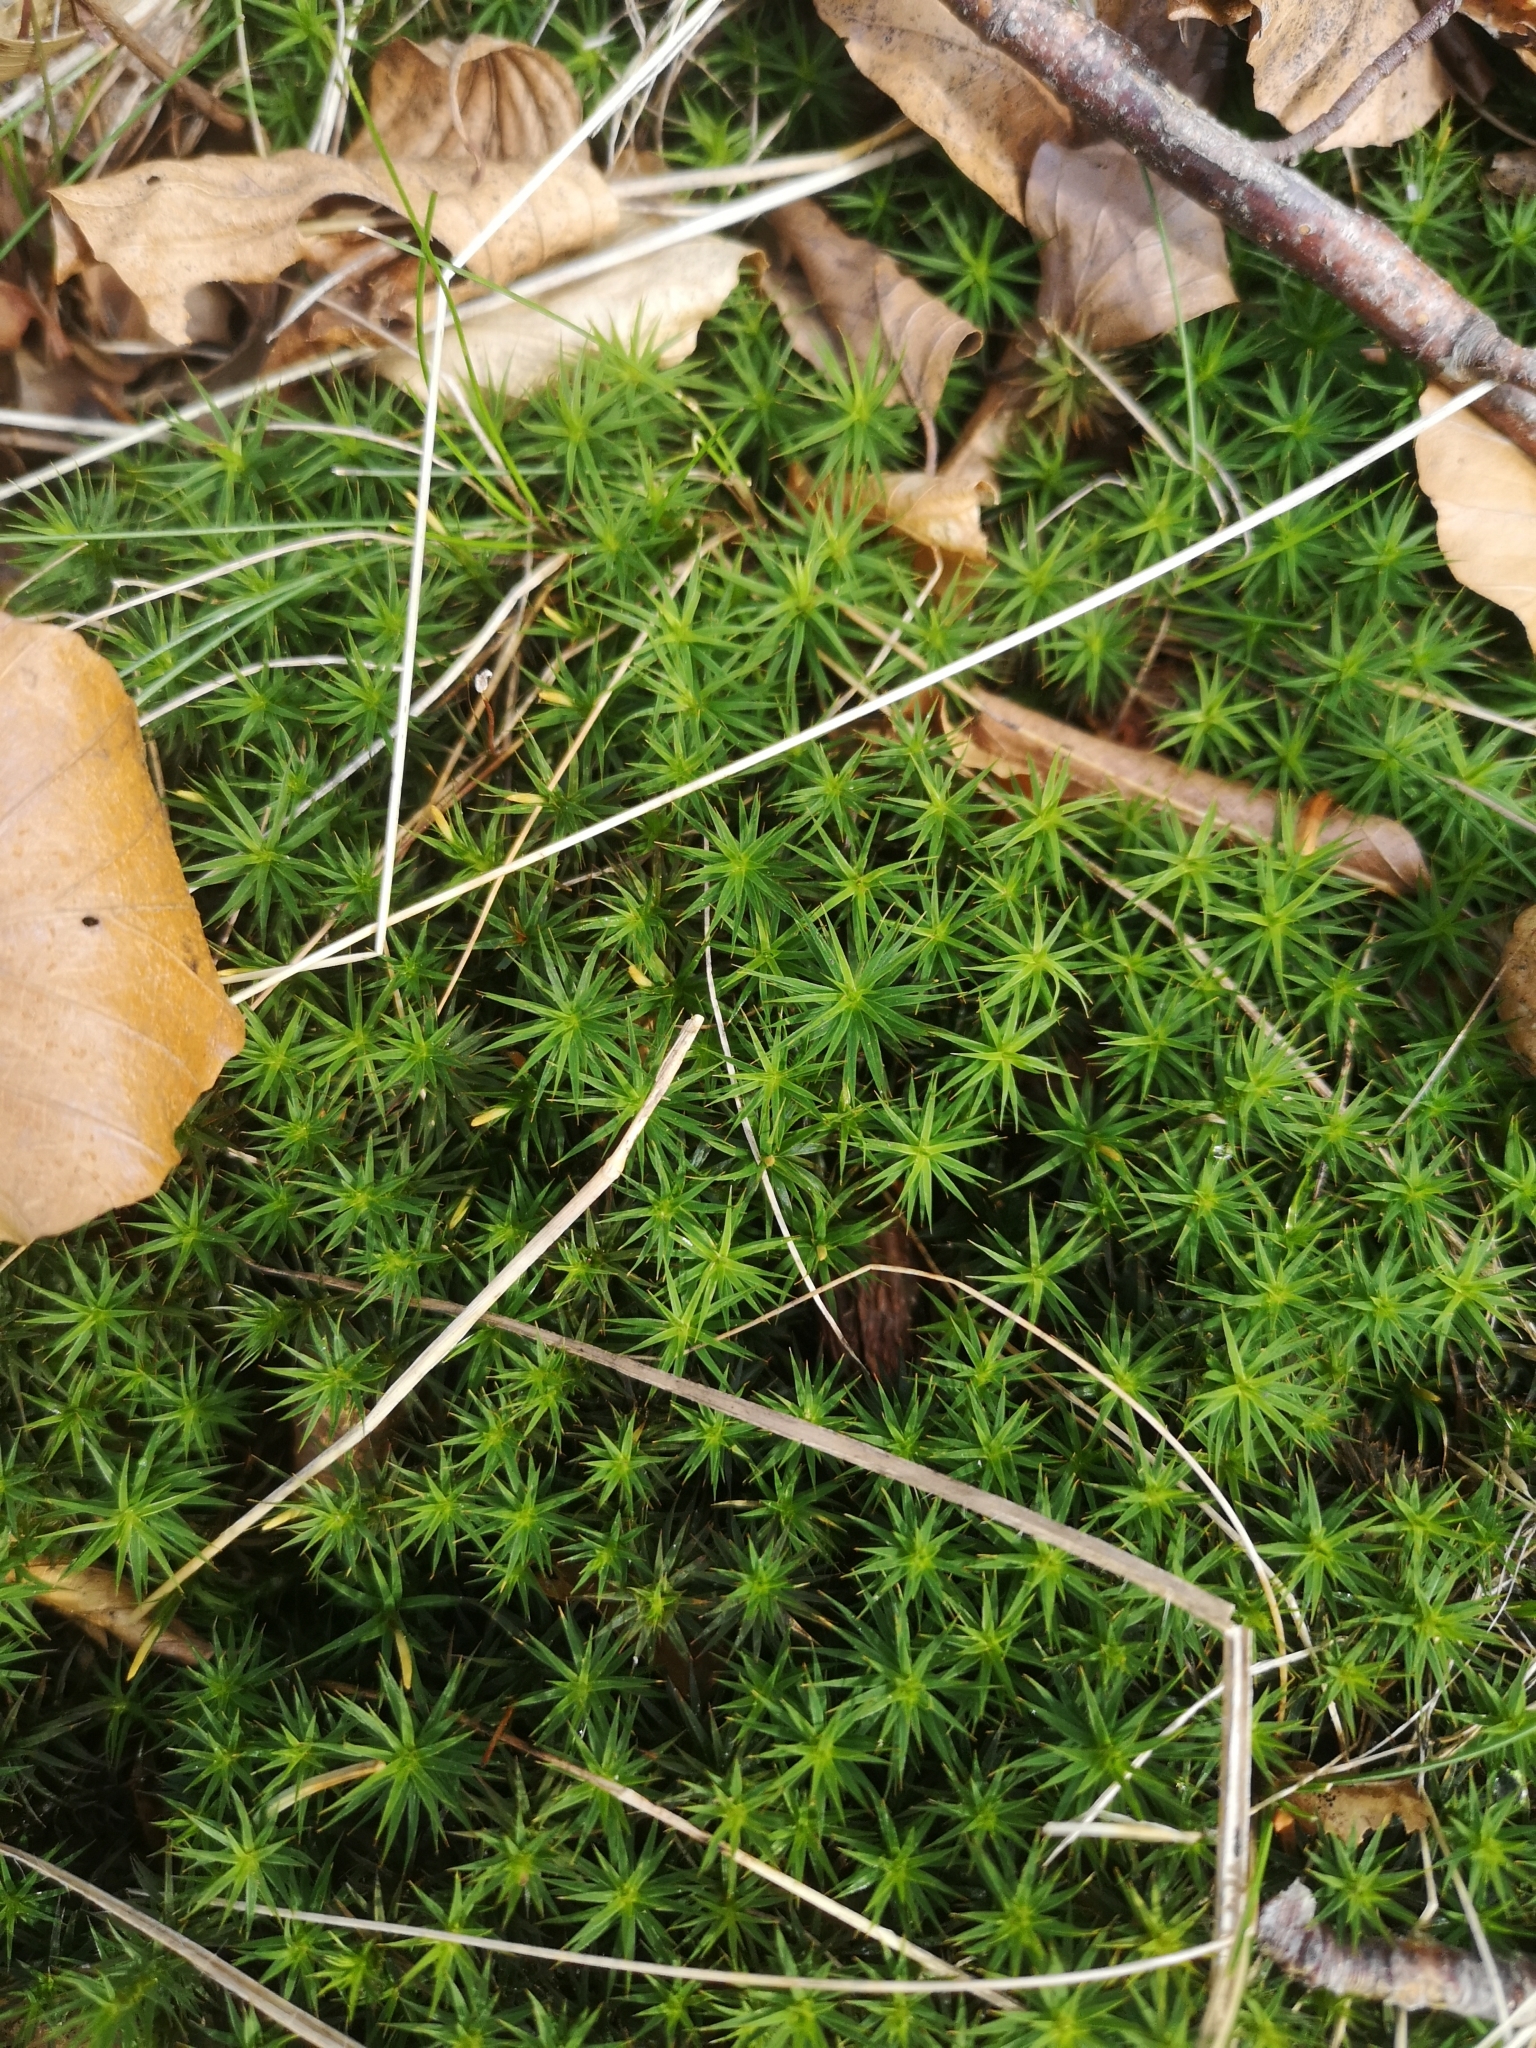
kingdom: Plantae
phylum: Bryophyta
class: Polytrichopsida
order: Polytrichales
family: Polytrichaceae
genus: Polytrichum
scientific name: Polytrichum formosum
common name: Bank haircap moss
